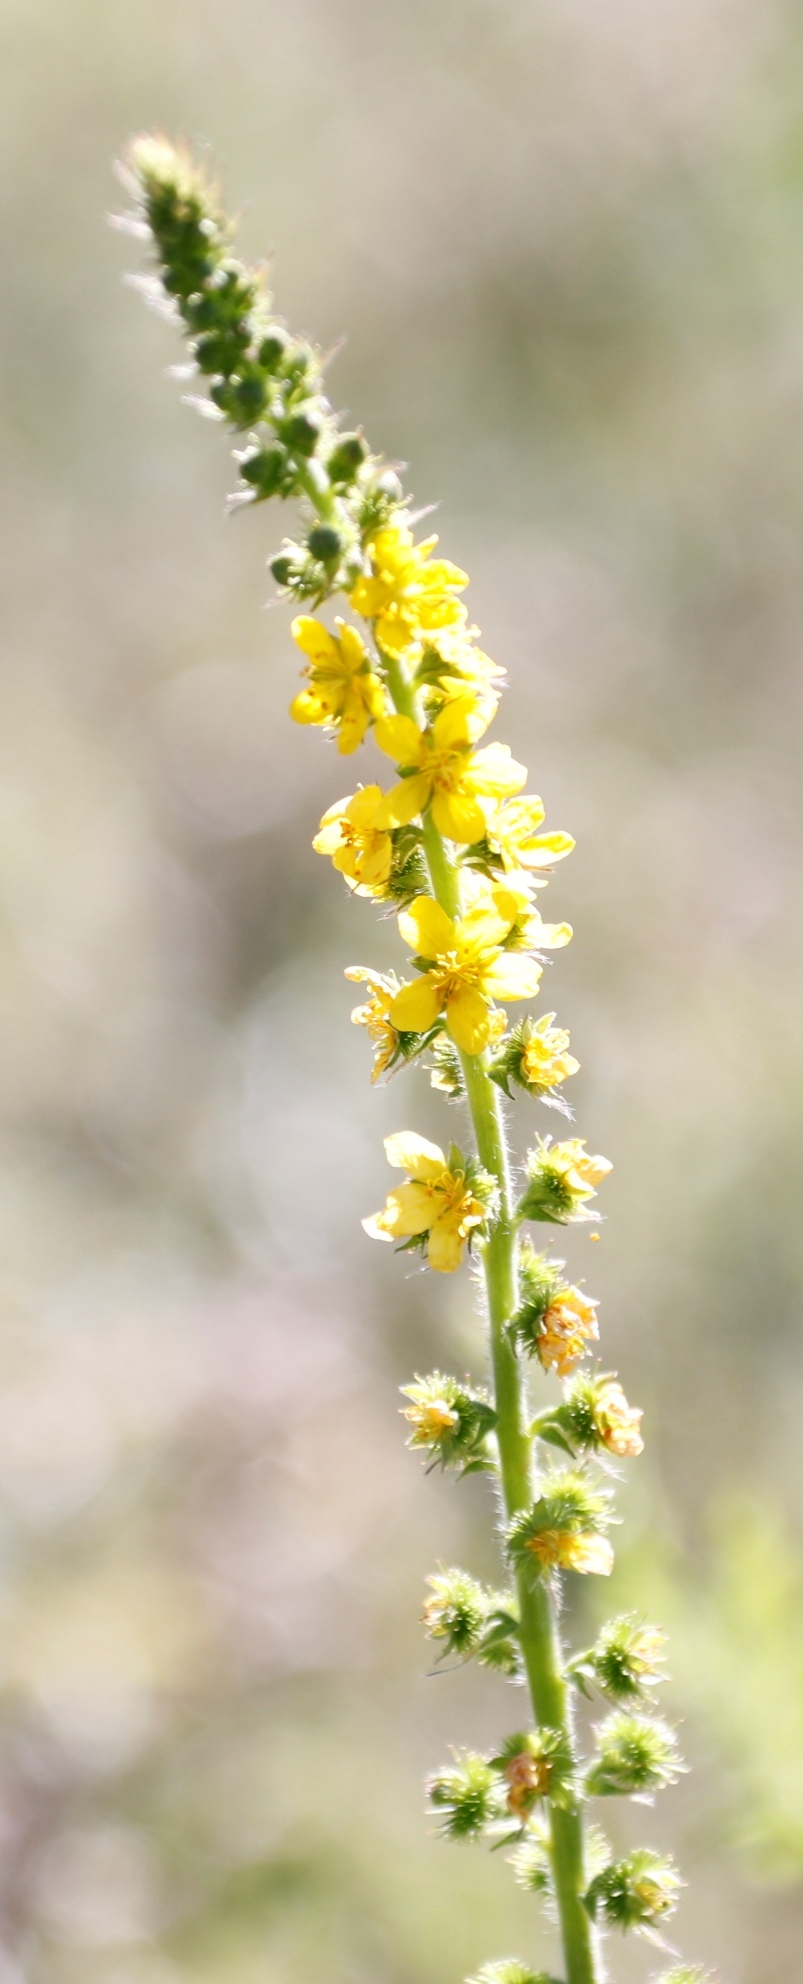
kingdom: Plantae
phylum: Tracheophyta
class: Magnoliopsida
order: Rosales
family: Rosaceae
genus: Agrimonia
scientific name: Agrimonia bracteata
